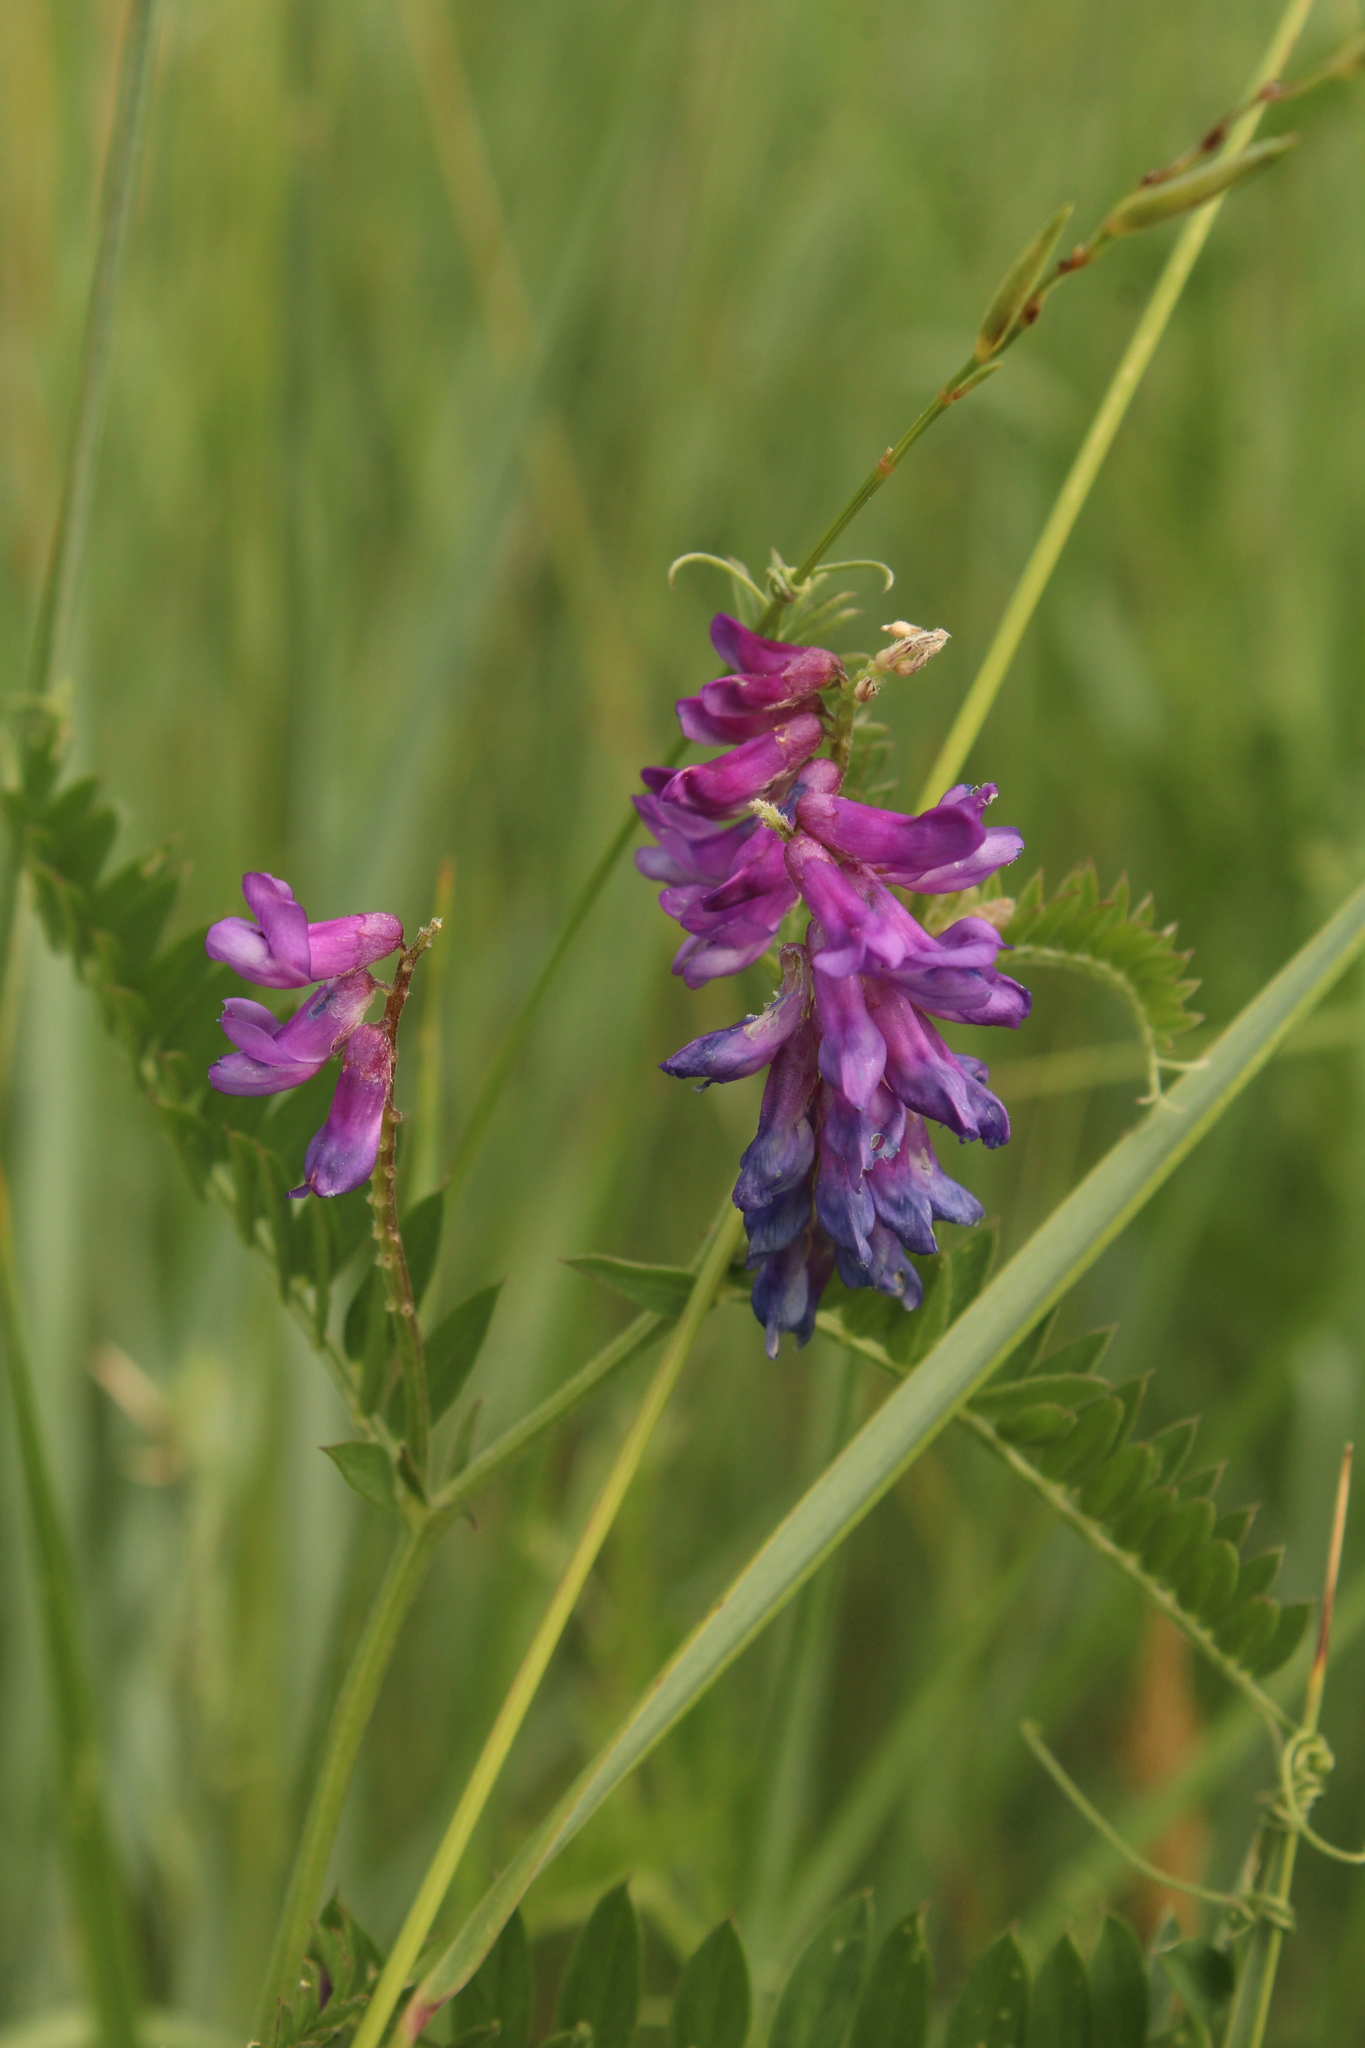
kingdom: Plantae
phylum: Tracheophyta
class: Magnoliopsida
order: Fabales
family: Fabaceae
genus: Vicia
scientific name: Vicia cracca
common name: Bird vetch
